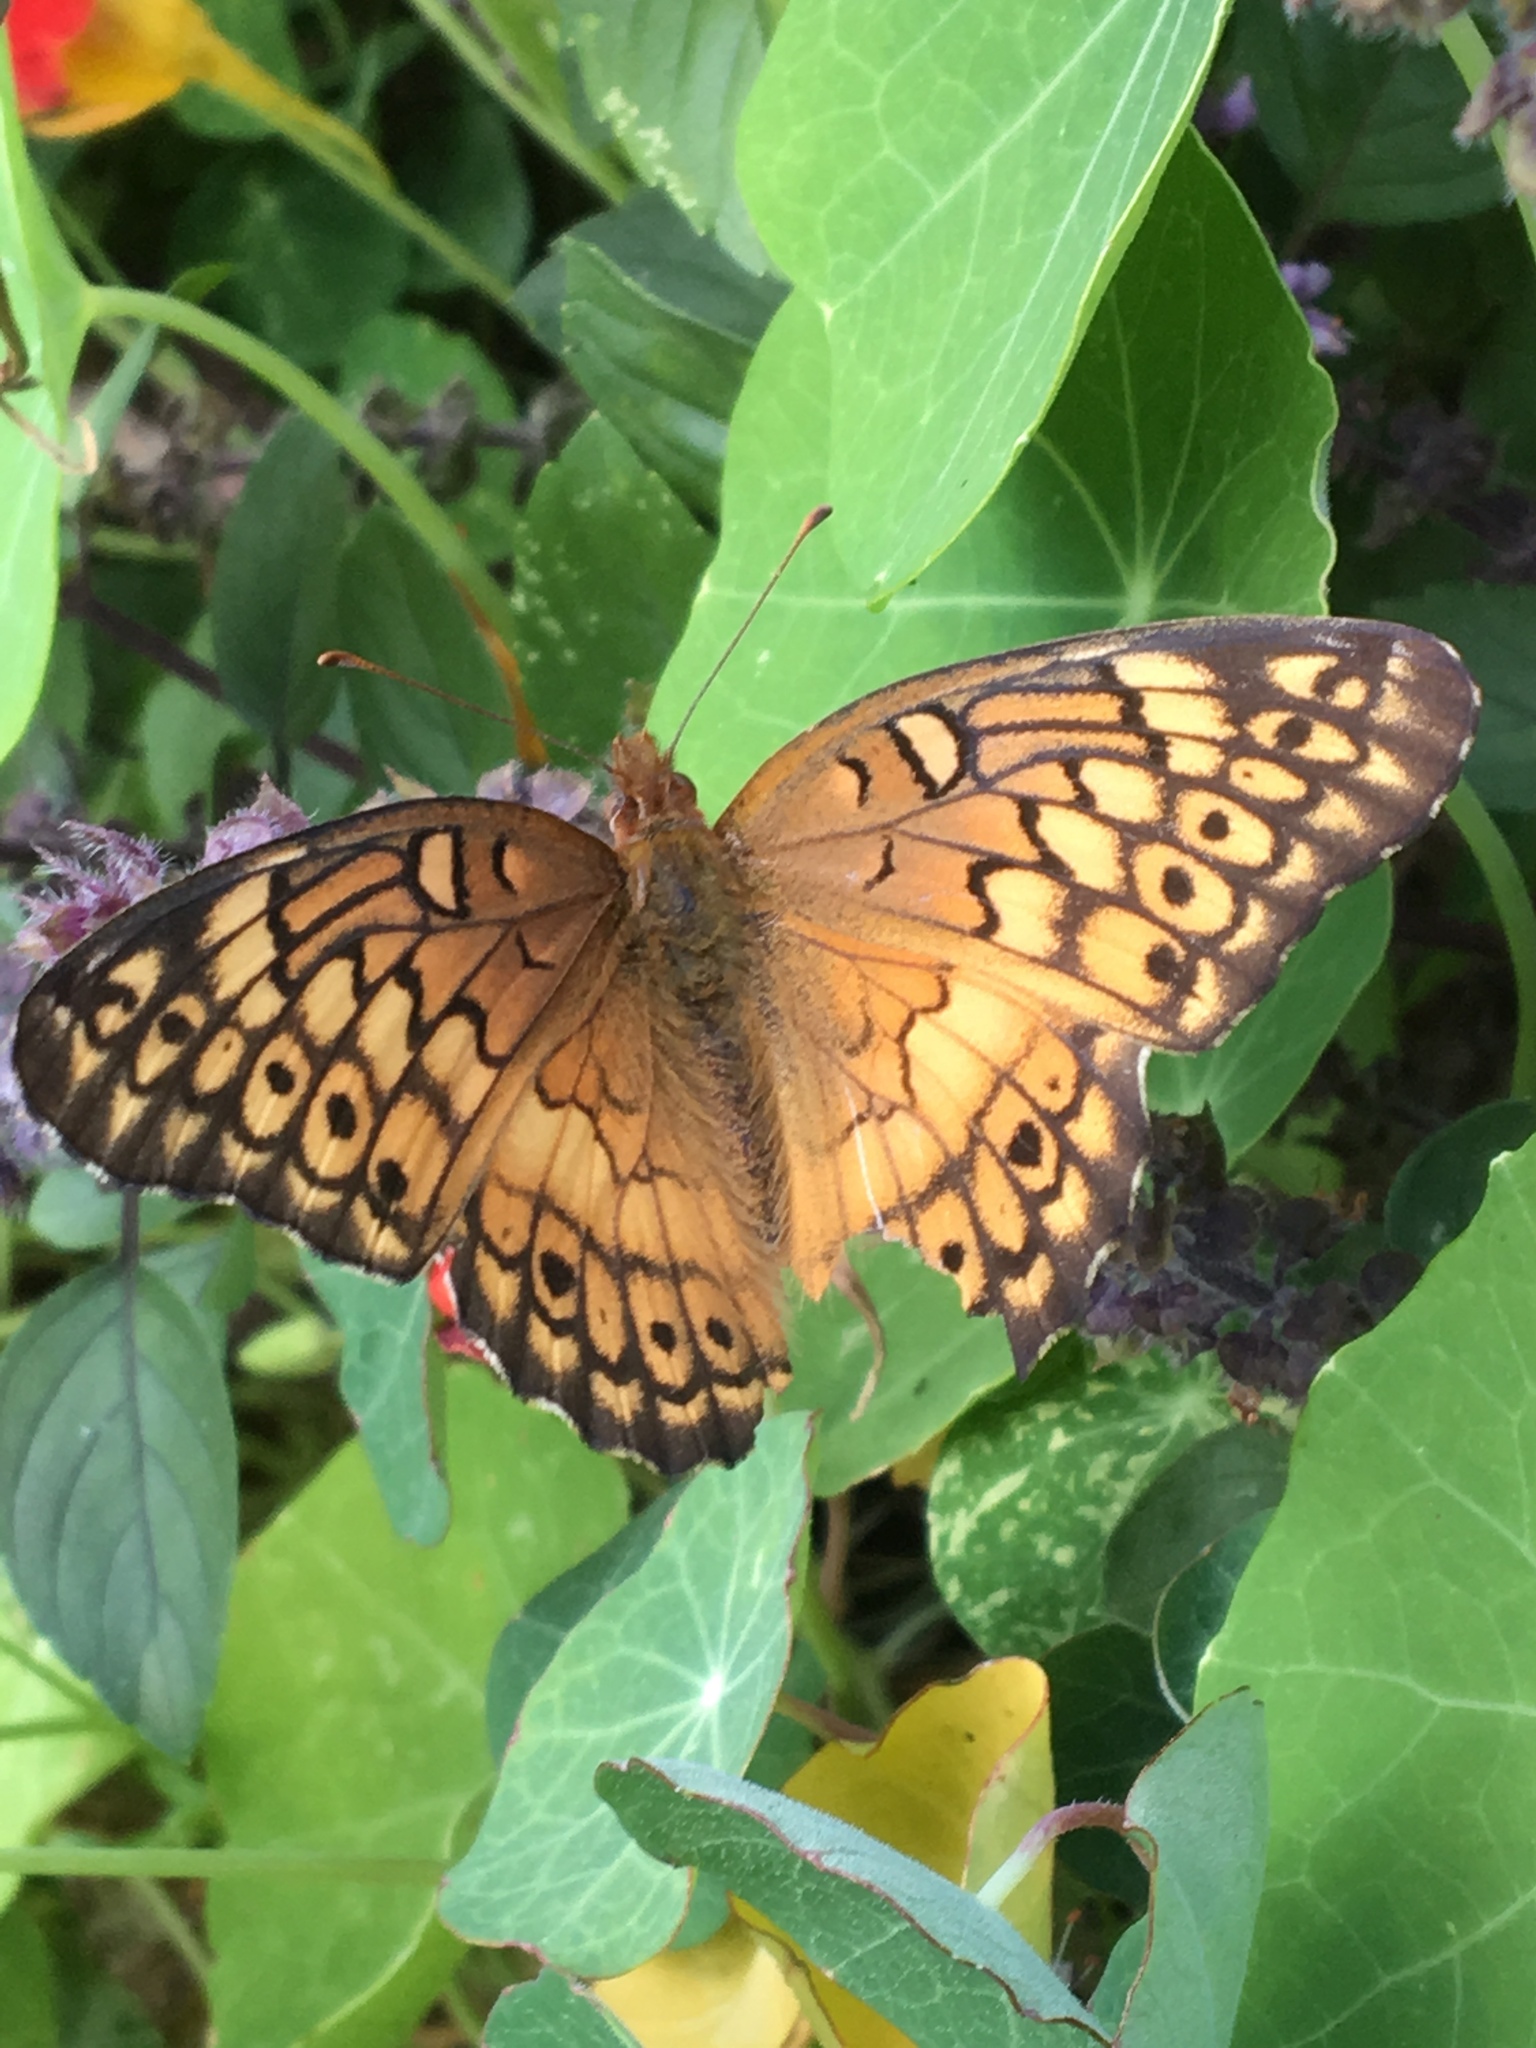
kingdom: Animalia
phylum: Arthropoda
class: Insecta
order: Lepidoptera
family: Nymphalidae
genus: Euptoieta
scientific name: Euptoieta claudia
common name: Variegated fritillary
